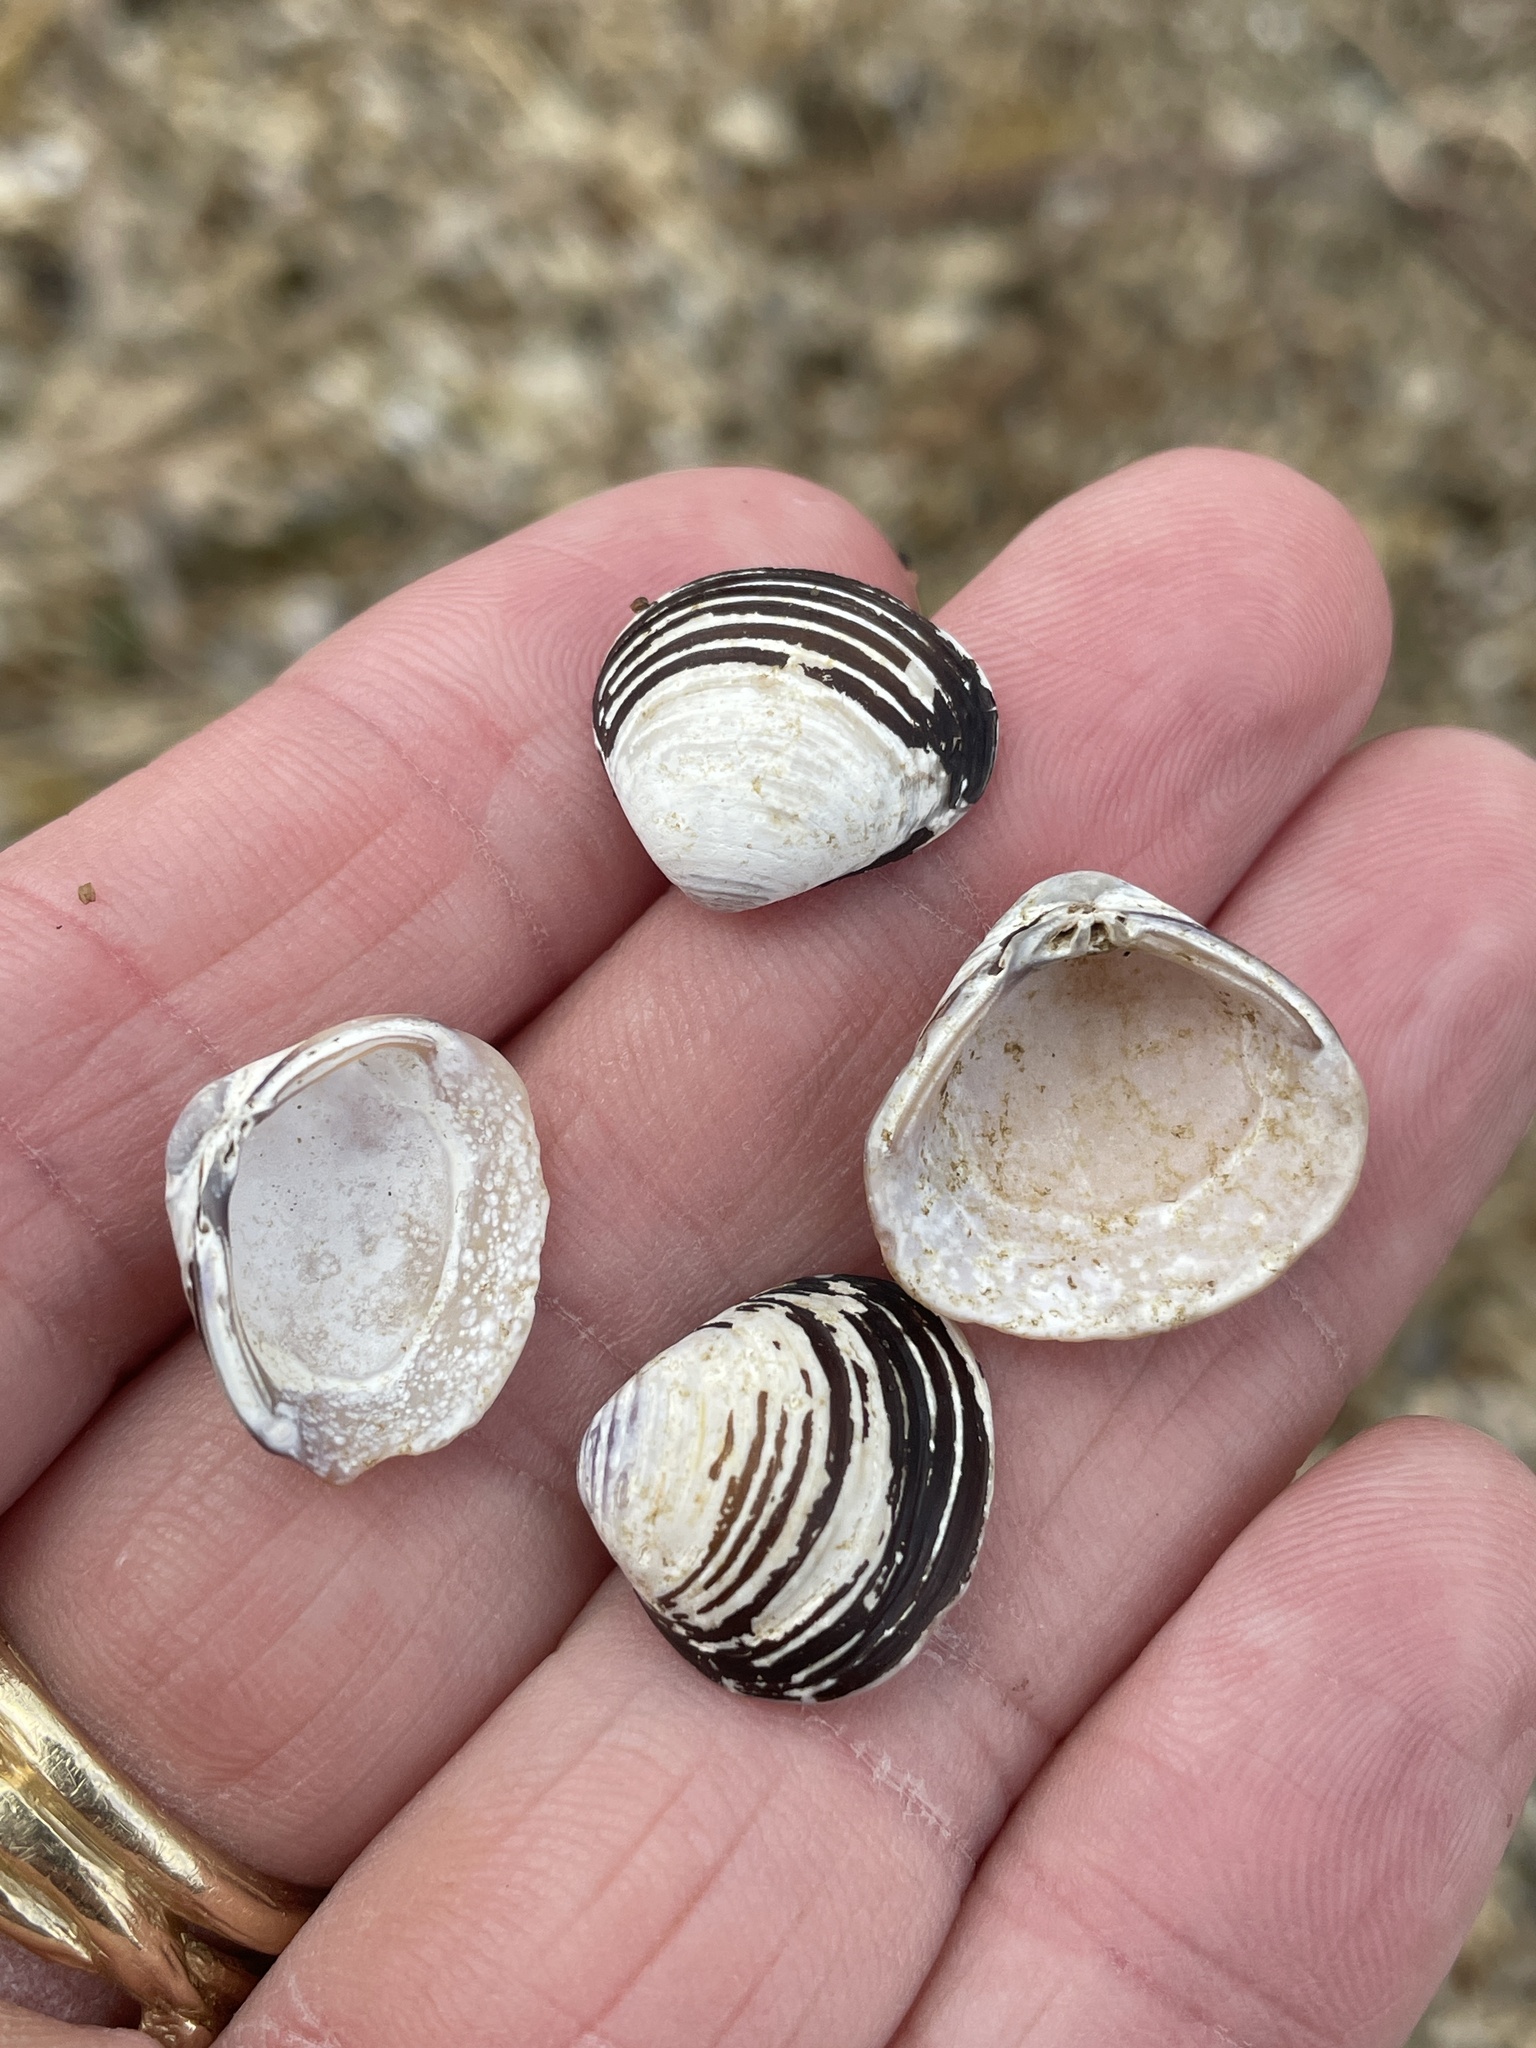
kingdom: Animalia
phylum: Mollusca
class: Bivalvia
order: Venerida
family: Cyrenidae
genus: Corbicula
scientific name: Corbicula fluminea
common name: Asian clam
